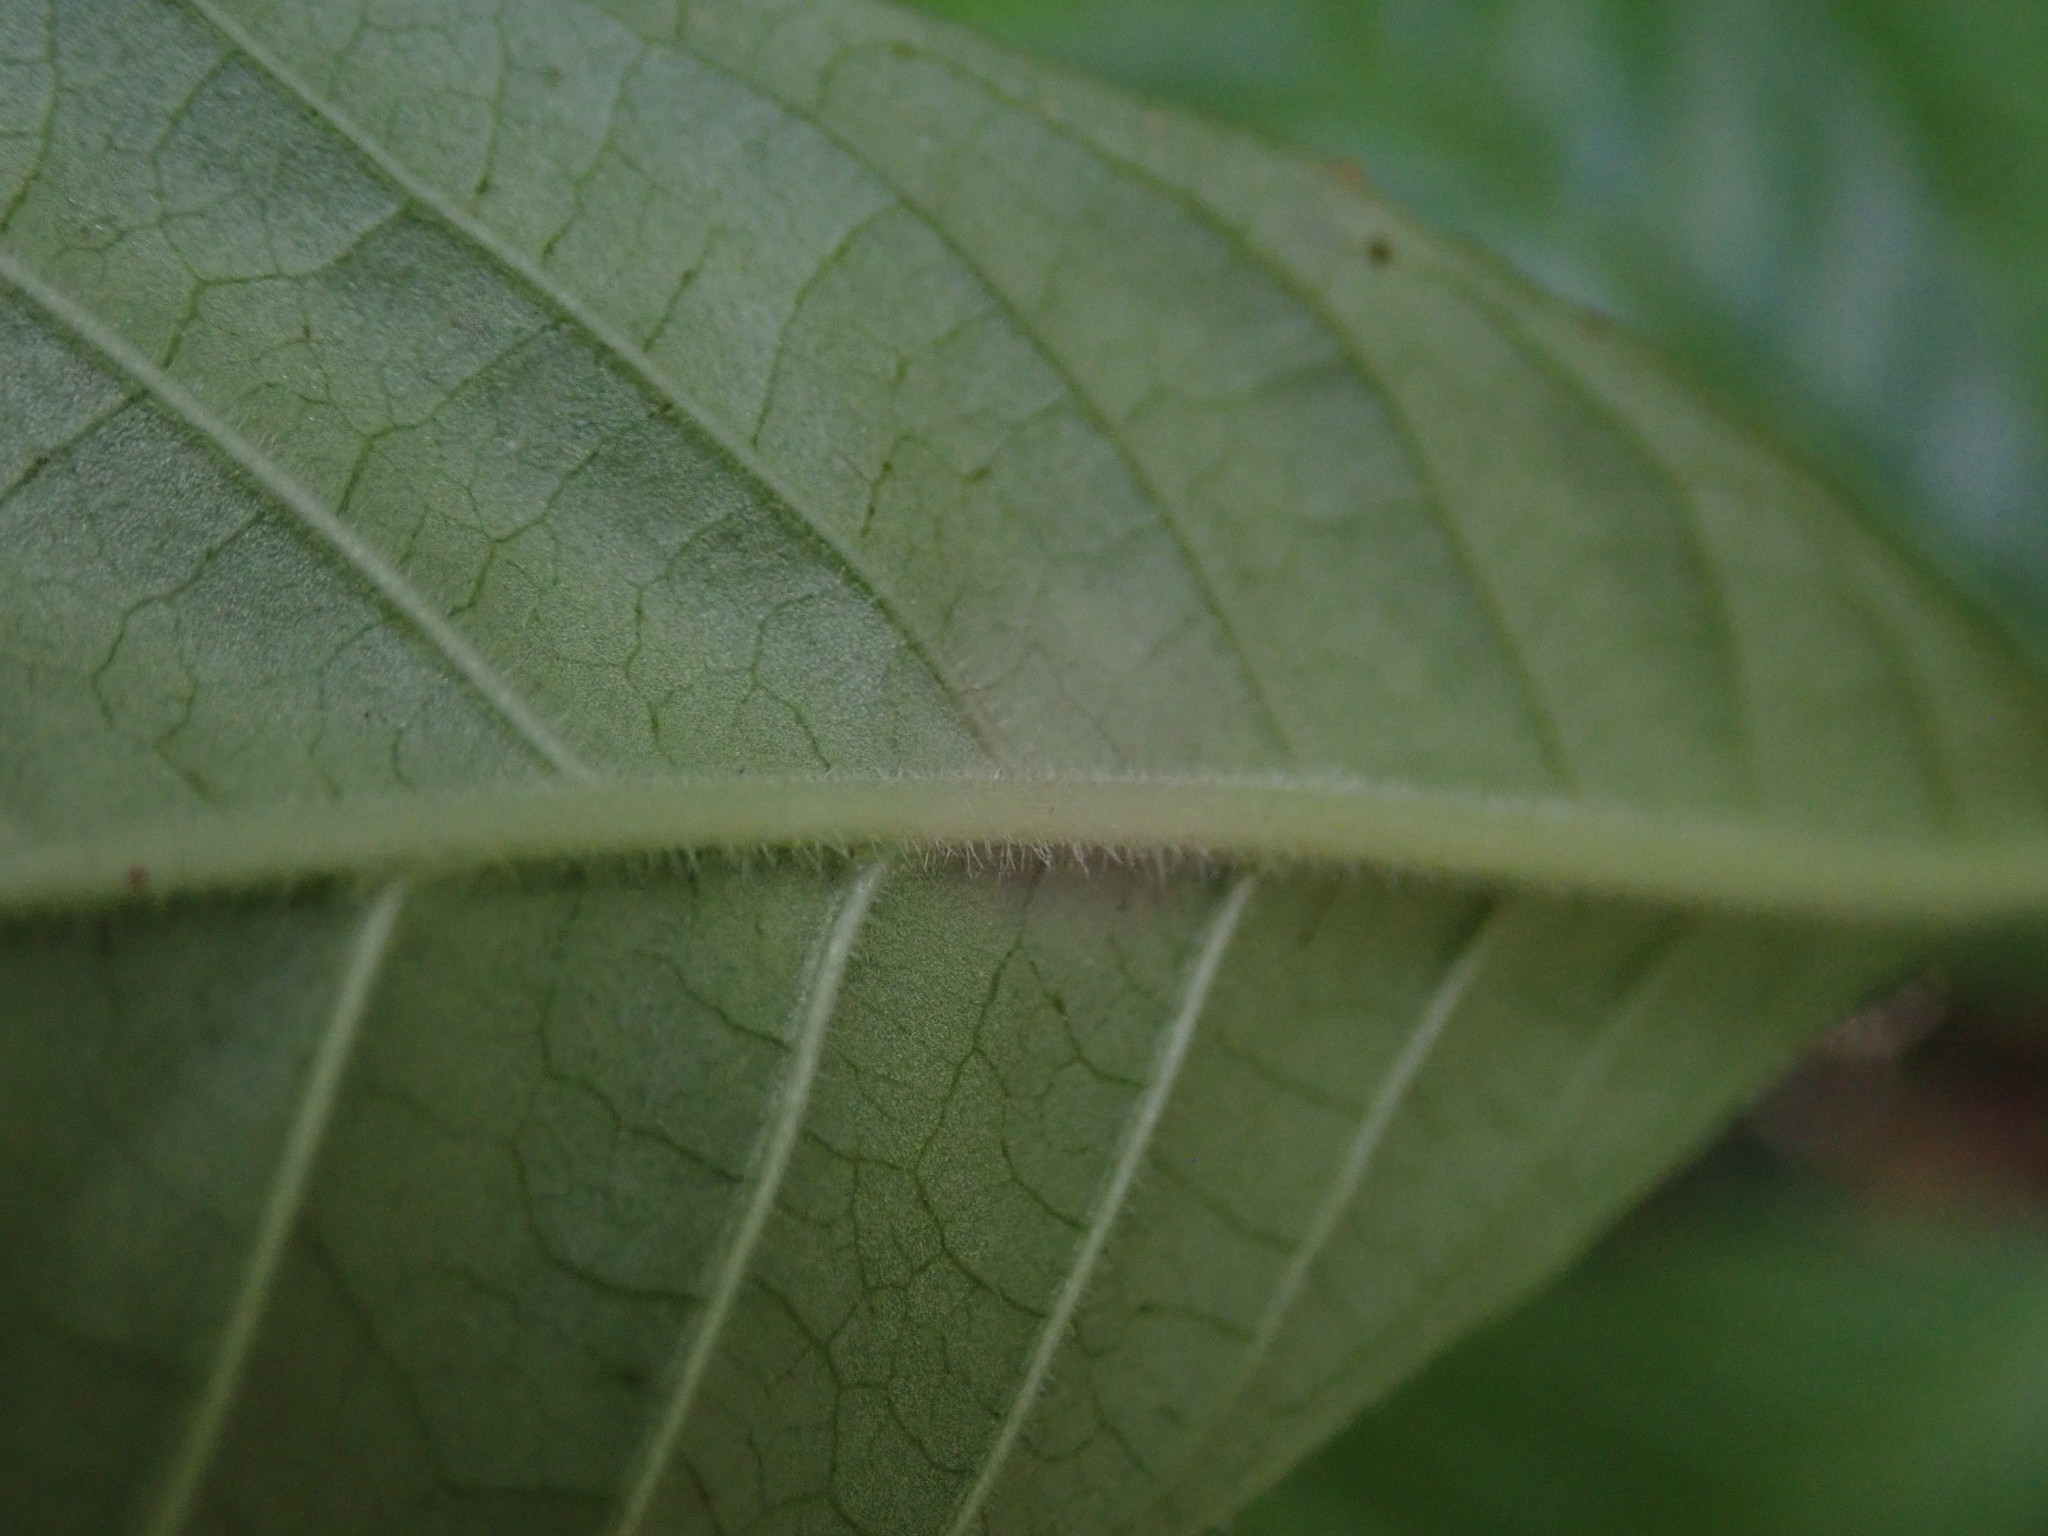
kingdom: Plantae
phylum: Tracheophyta
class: Magnoliopsida
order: Gentianales
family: Rubiaceae
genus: Psychotria
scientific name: Psychotria nervosa
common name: Bastard cankerberry
